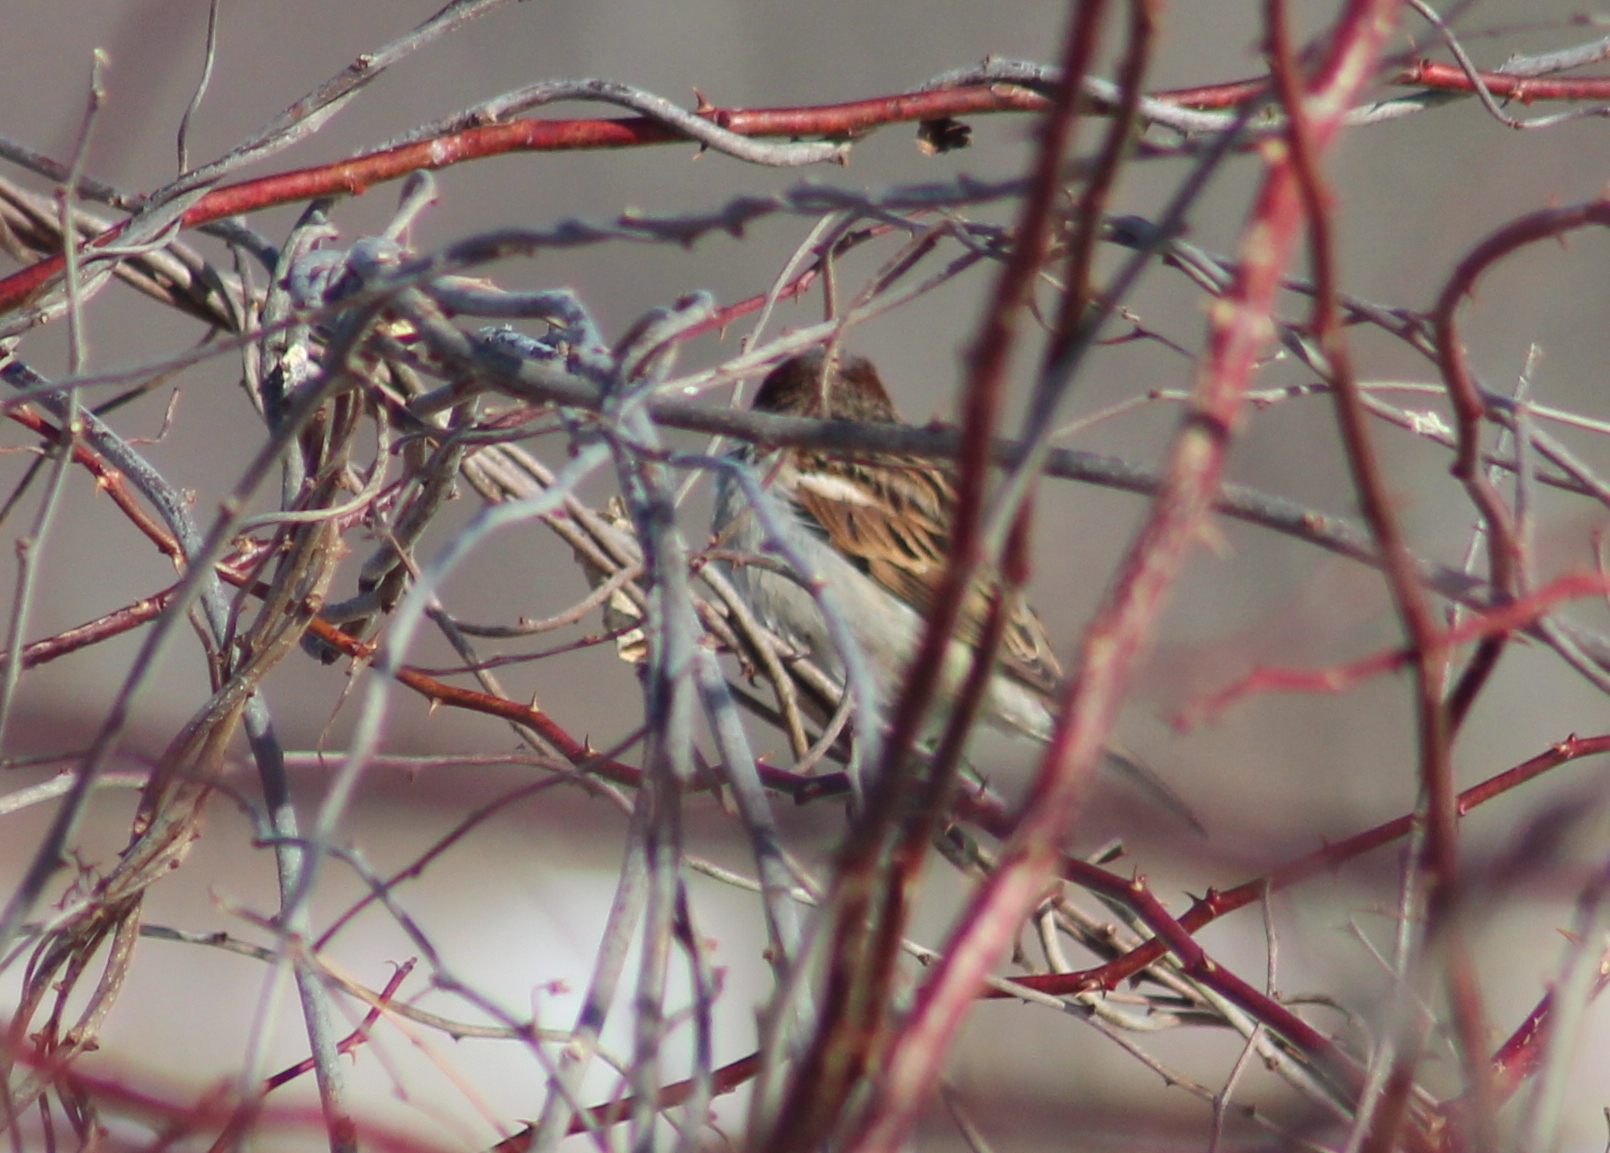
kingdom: Animalia
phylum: Chordata
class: Aves
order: Passeriformes
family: Passeridae
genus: Passer
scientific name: Passer domesticus
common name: House sparrow
